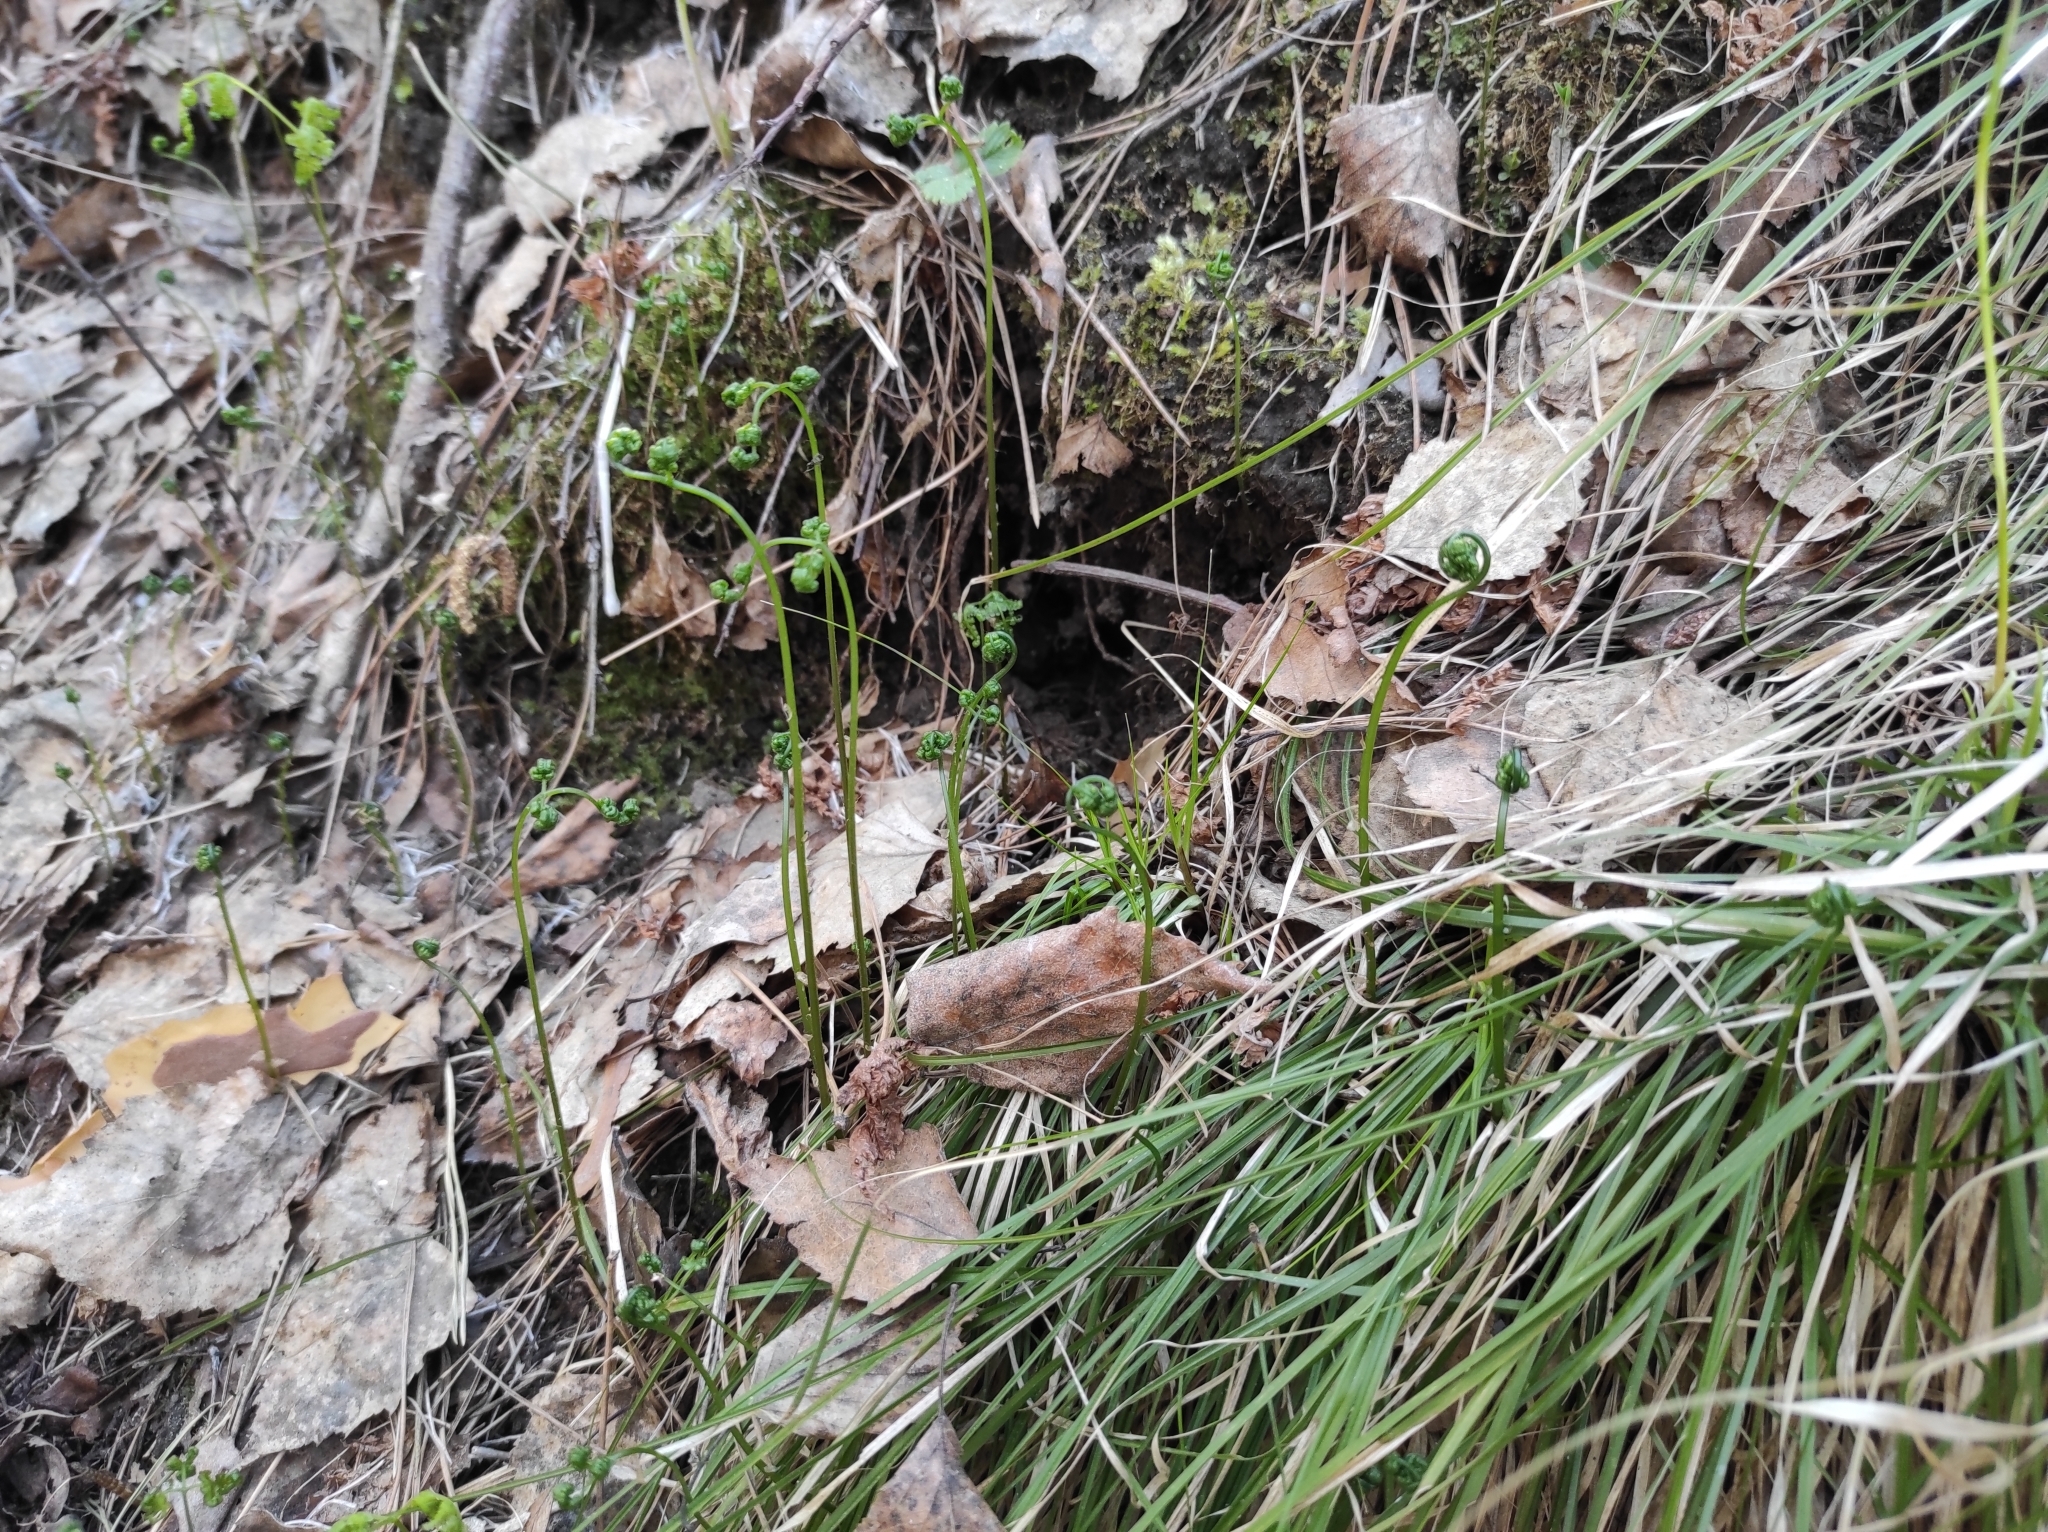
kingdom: Plantae
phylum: Tracheophyta
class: Polypodiopsida
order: Polypodiales
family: Dennstaedtiaceae
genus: Pteridium
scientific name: Pteridium aquilinum
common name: Bracken
